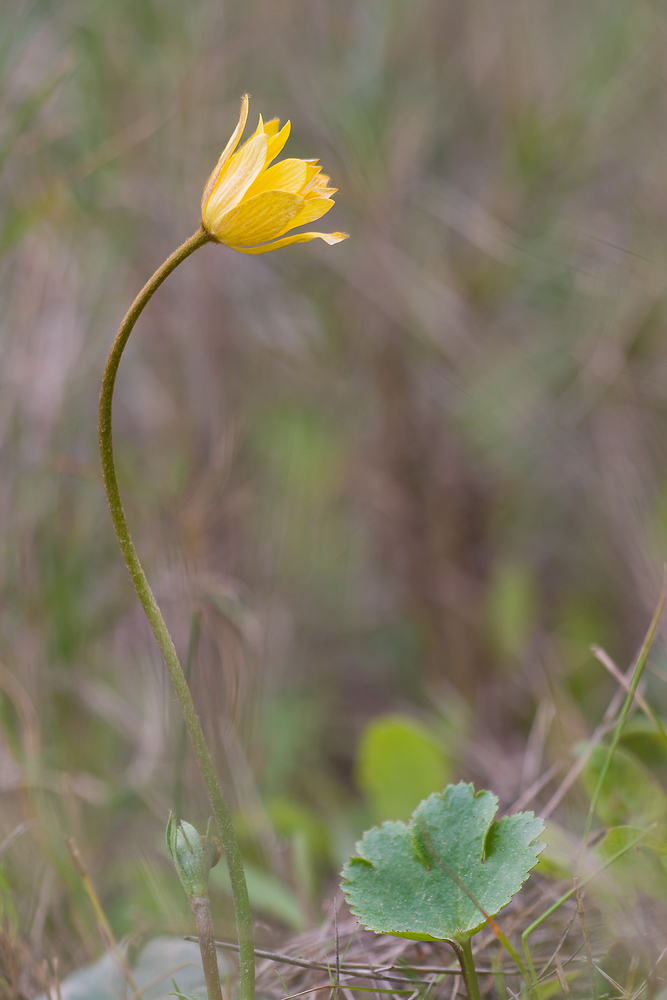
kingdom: Plantae
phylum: Tracheophyta
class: Magnoliopsida
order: Ranunculales
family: Ranunculaceae
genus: Anemone
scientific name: Anemone palmata
